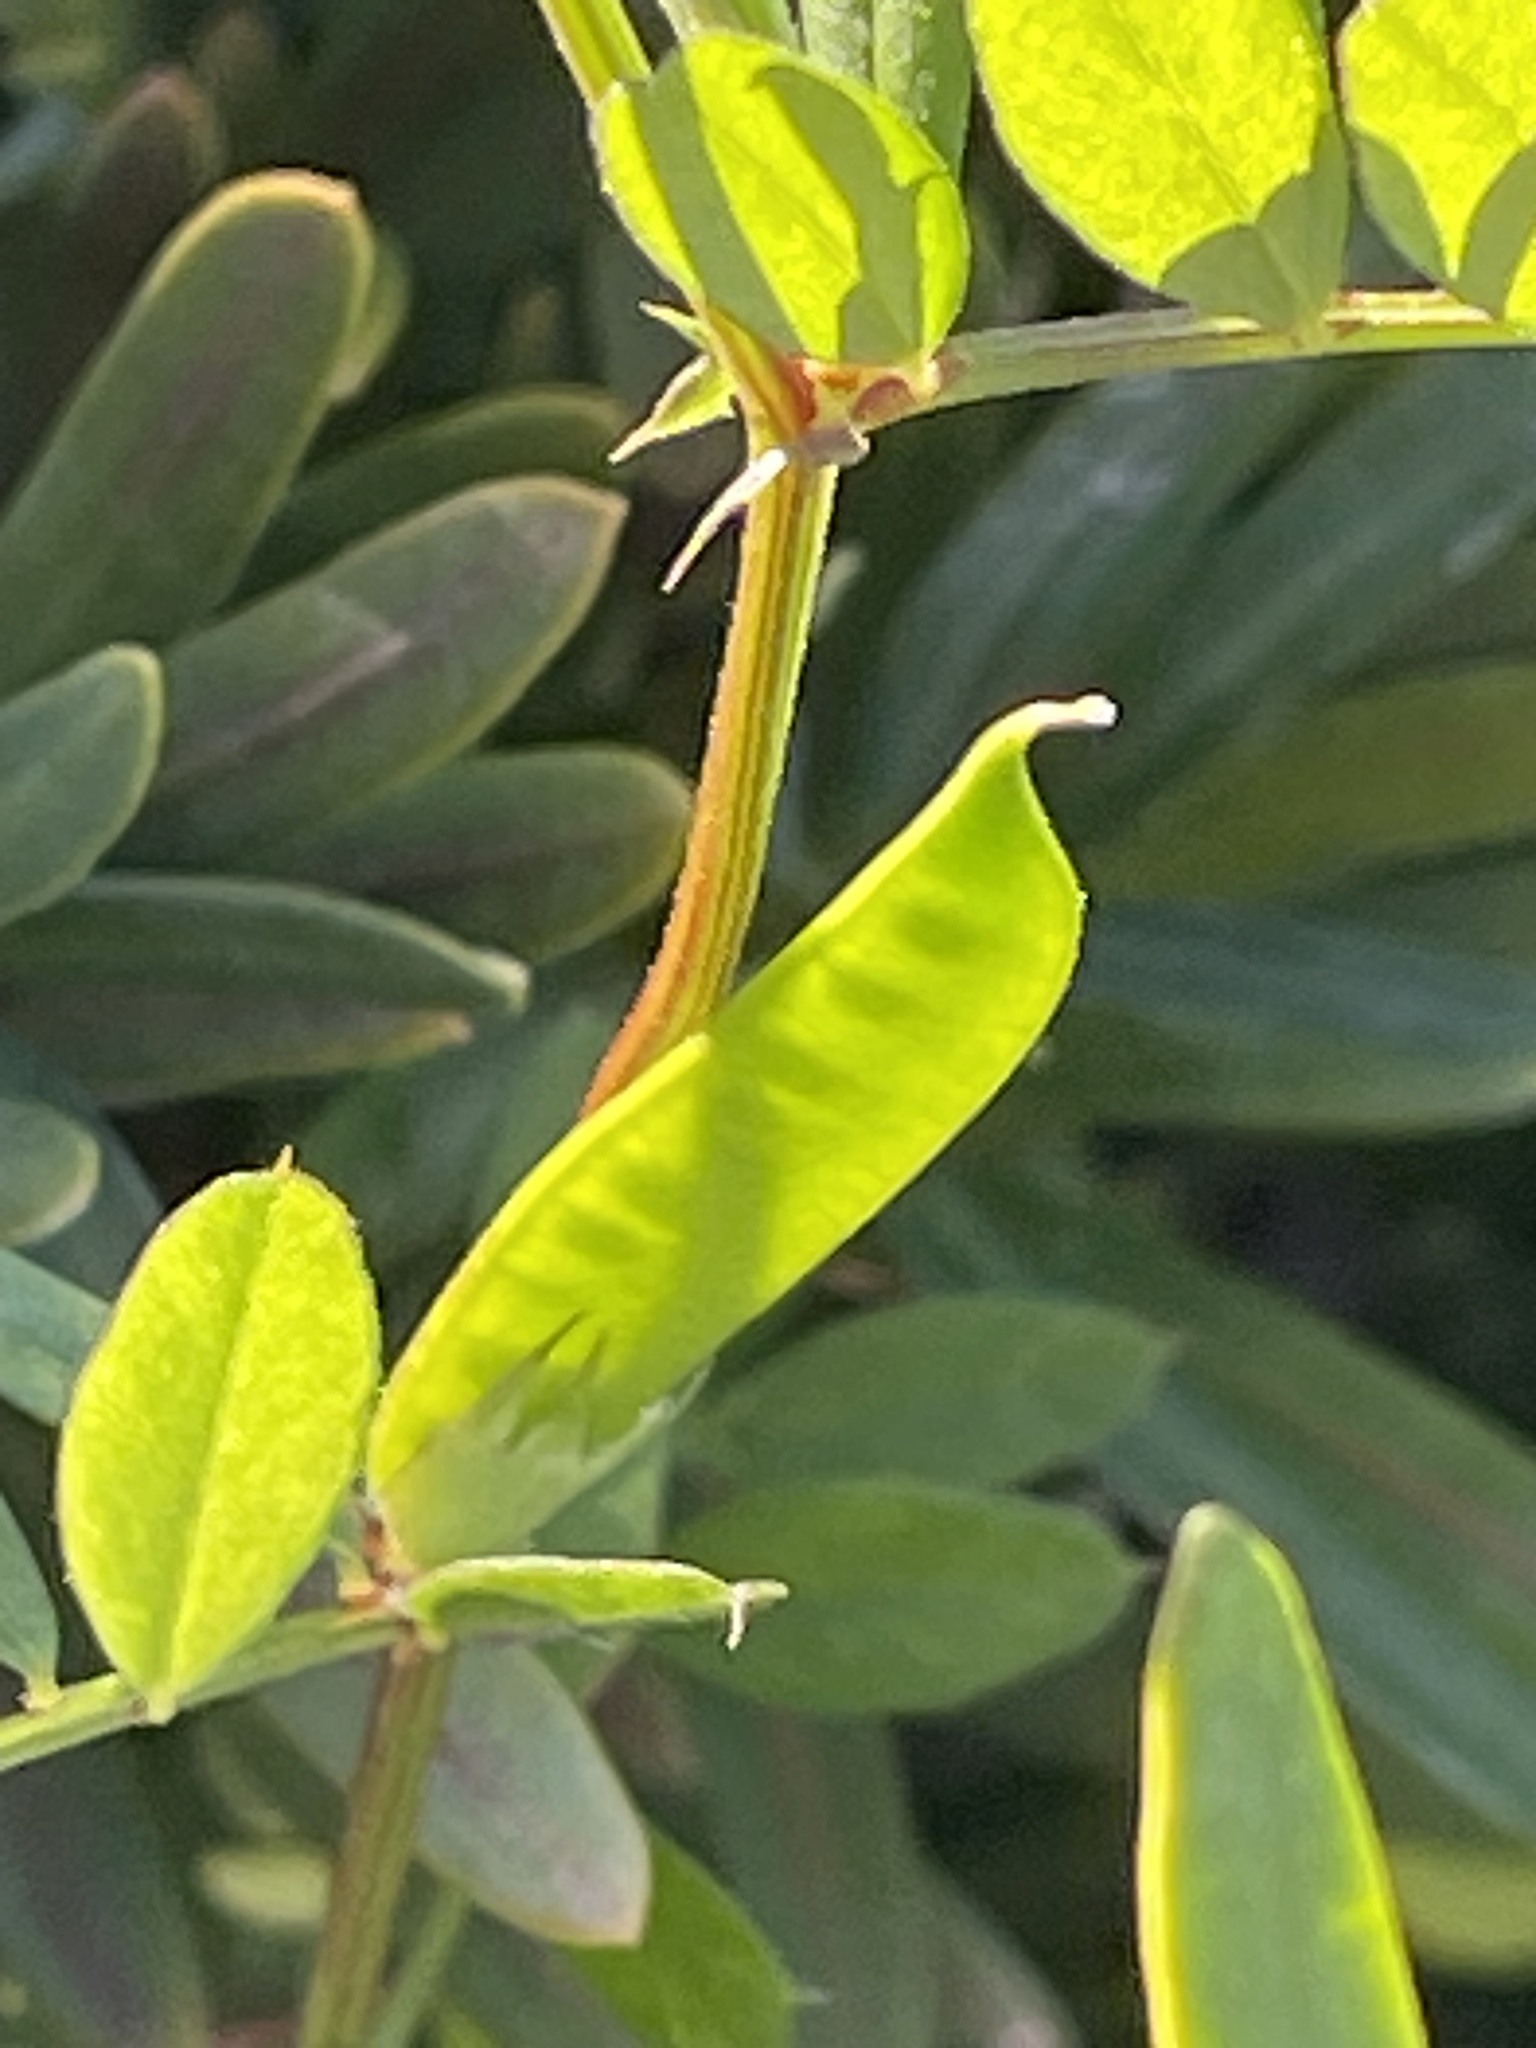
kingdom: Plantae
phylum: Tracheophyta
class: Magnoliopsida
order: Fabales
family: Fabaceae
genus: Vicia
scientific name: Vicia sativa
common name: Garden vetch
